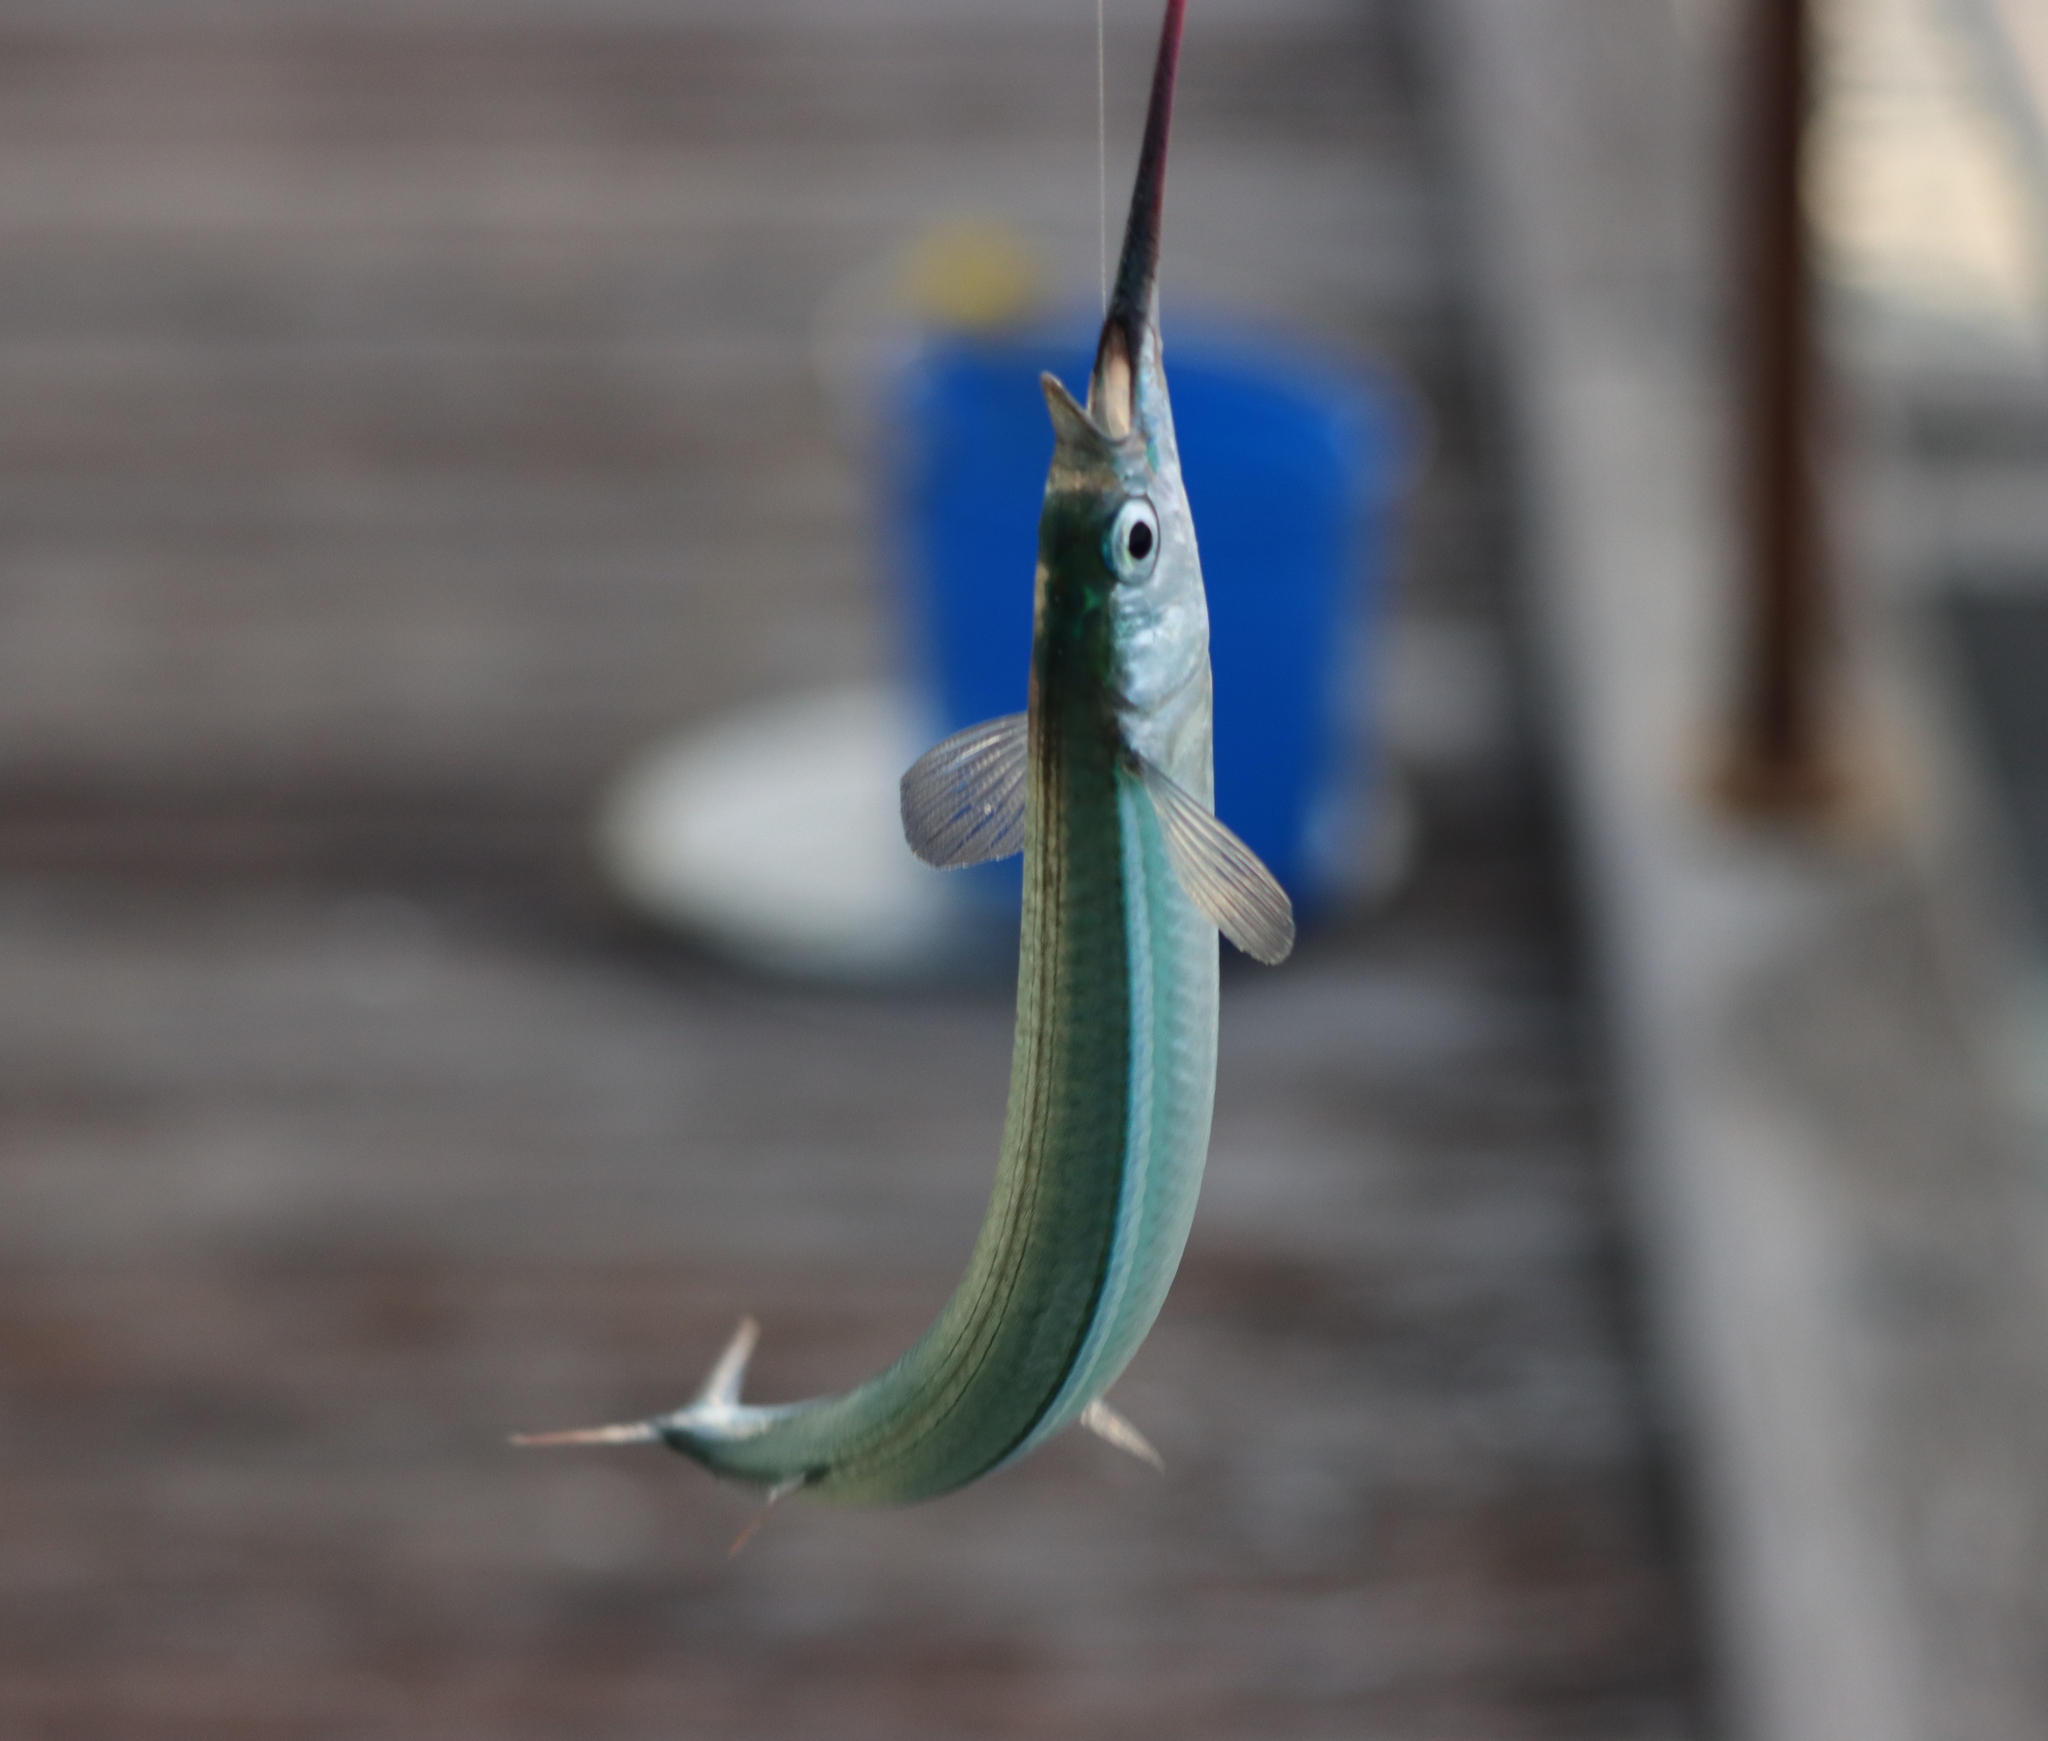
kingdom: Animalia
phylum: Chordata
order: Beloniformes
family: Hemiramphidae
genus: Hyporhamphus
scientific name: Hyporhamphus melanochir
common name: Southern garfish
